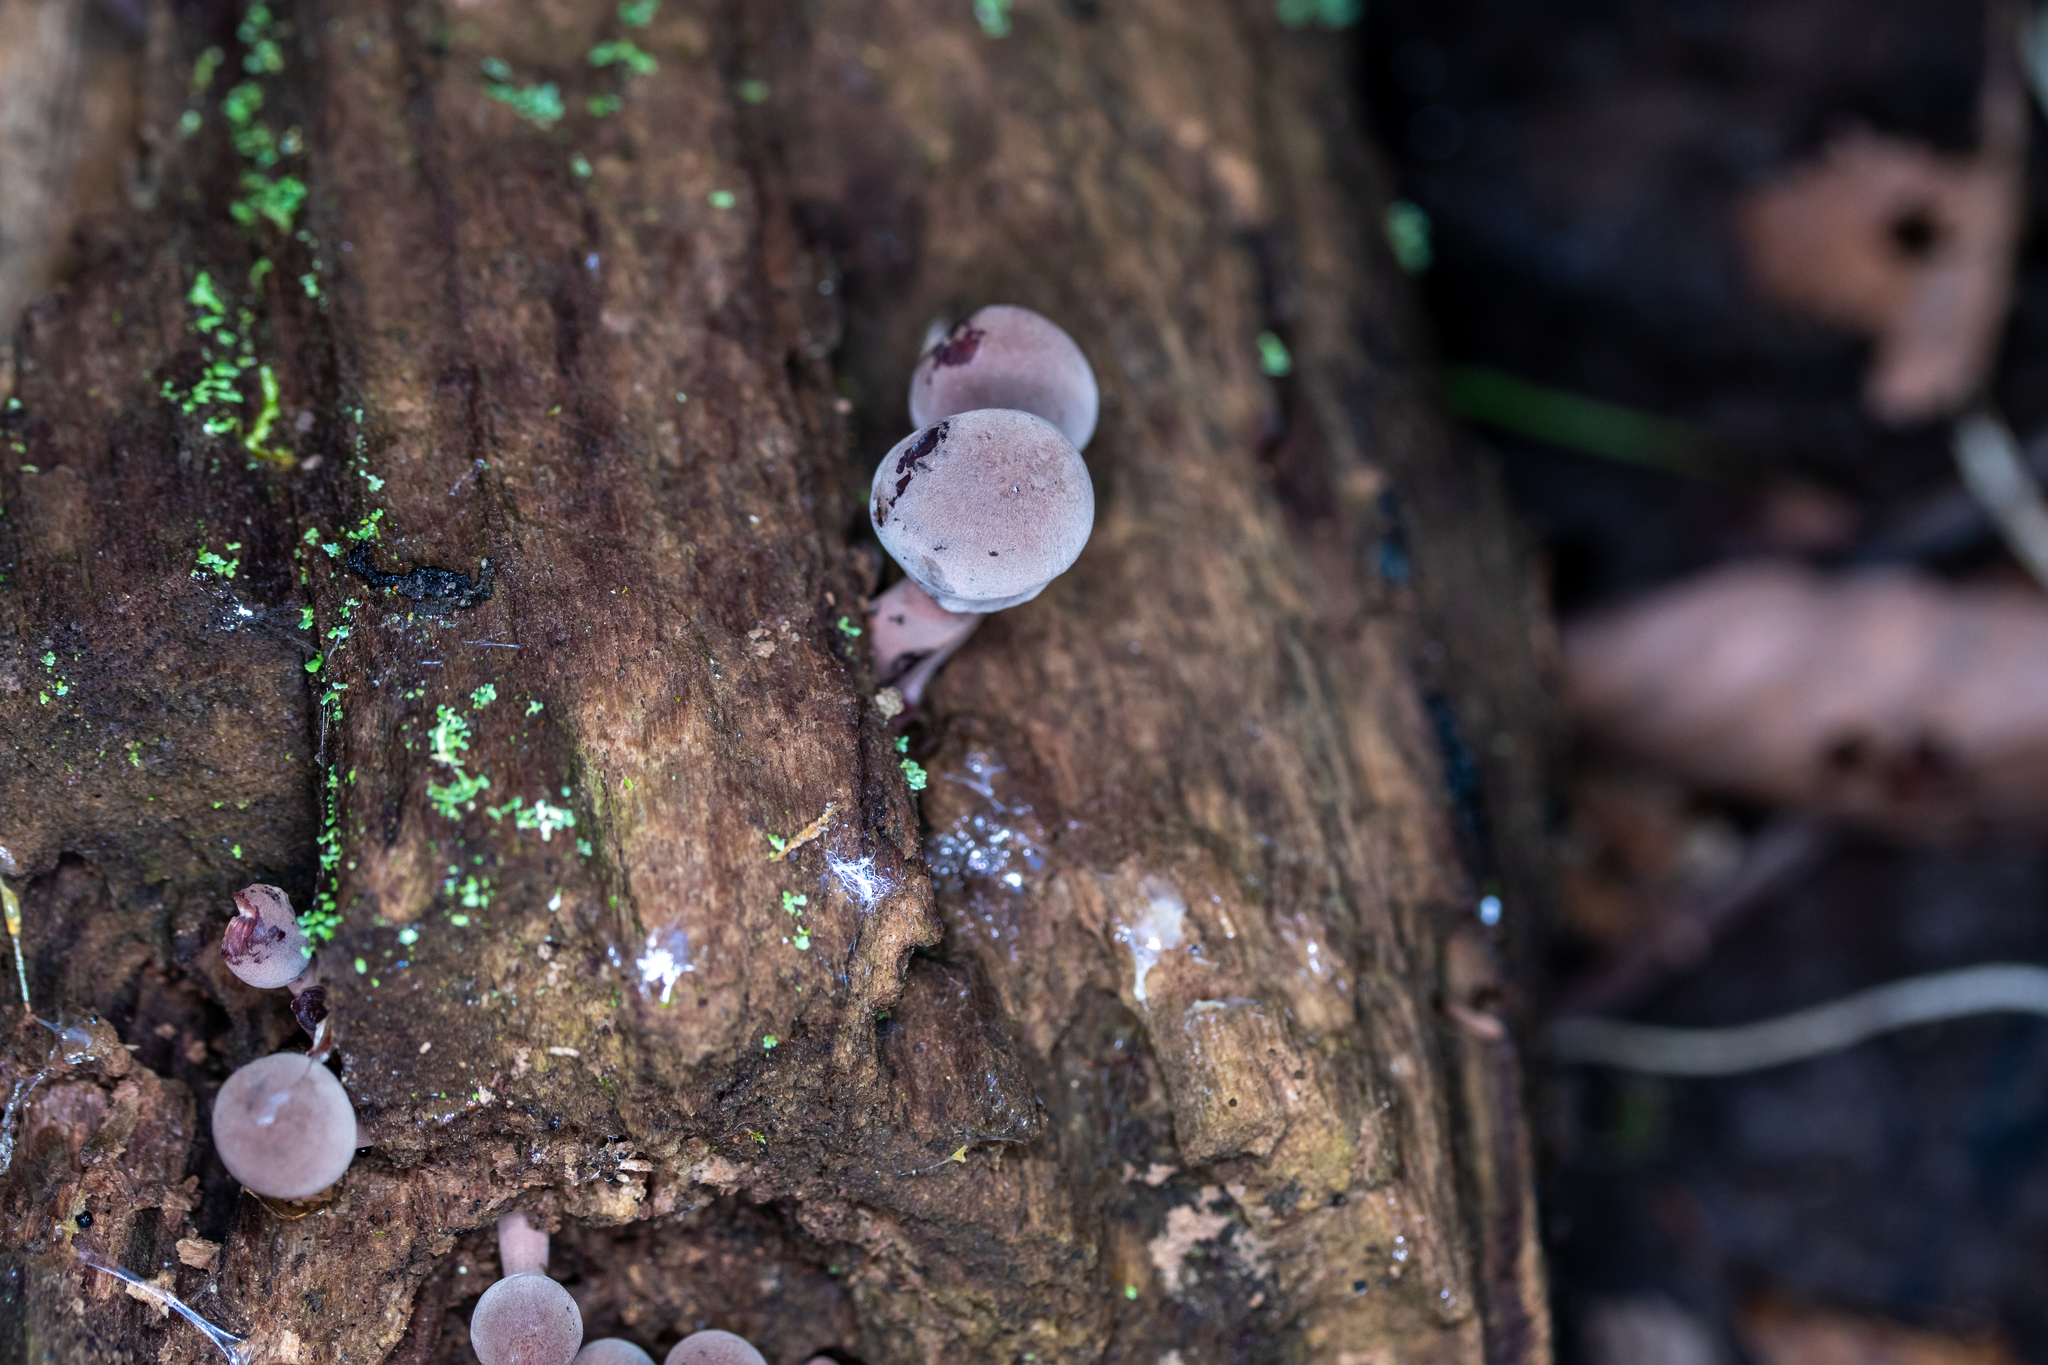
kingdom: Fungi
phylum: Basidiomycota
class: Agaricomycetes
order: Agaricales
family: Mycenaceae
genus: Mycena
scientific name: Mycena haematopus
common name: Burgundydrop bonnet
